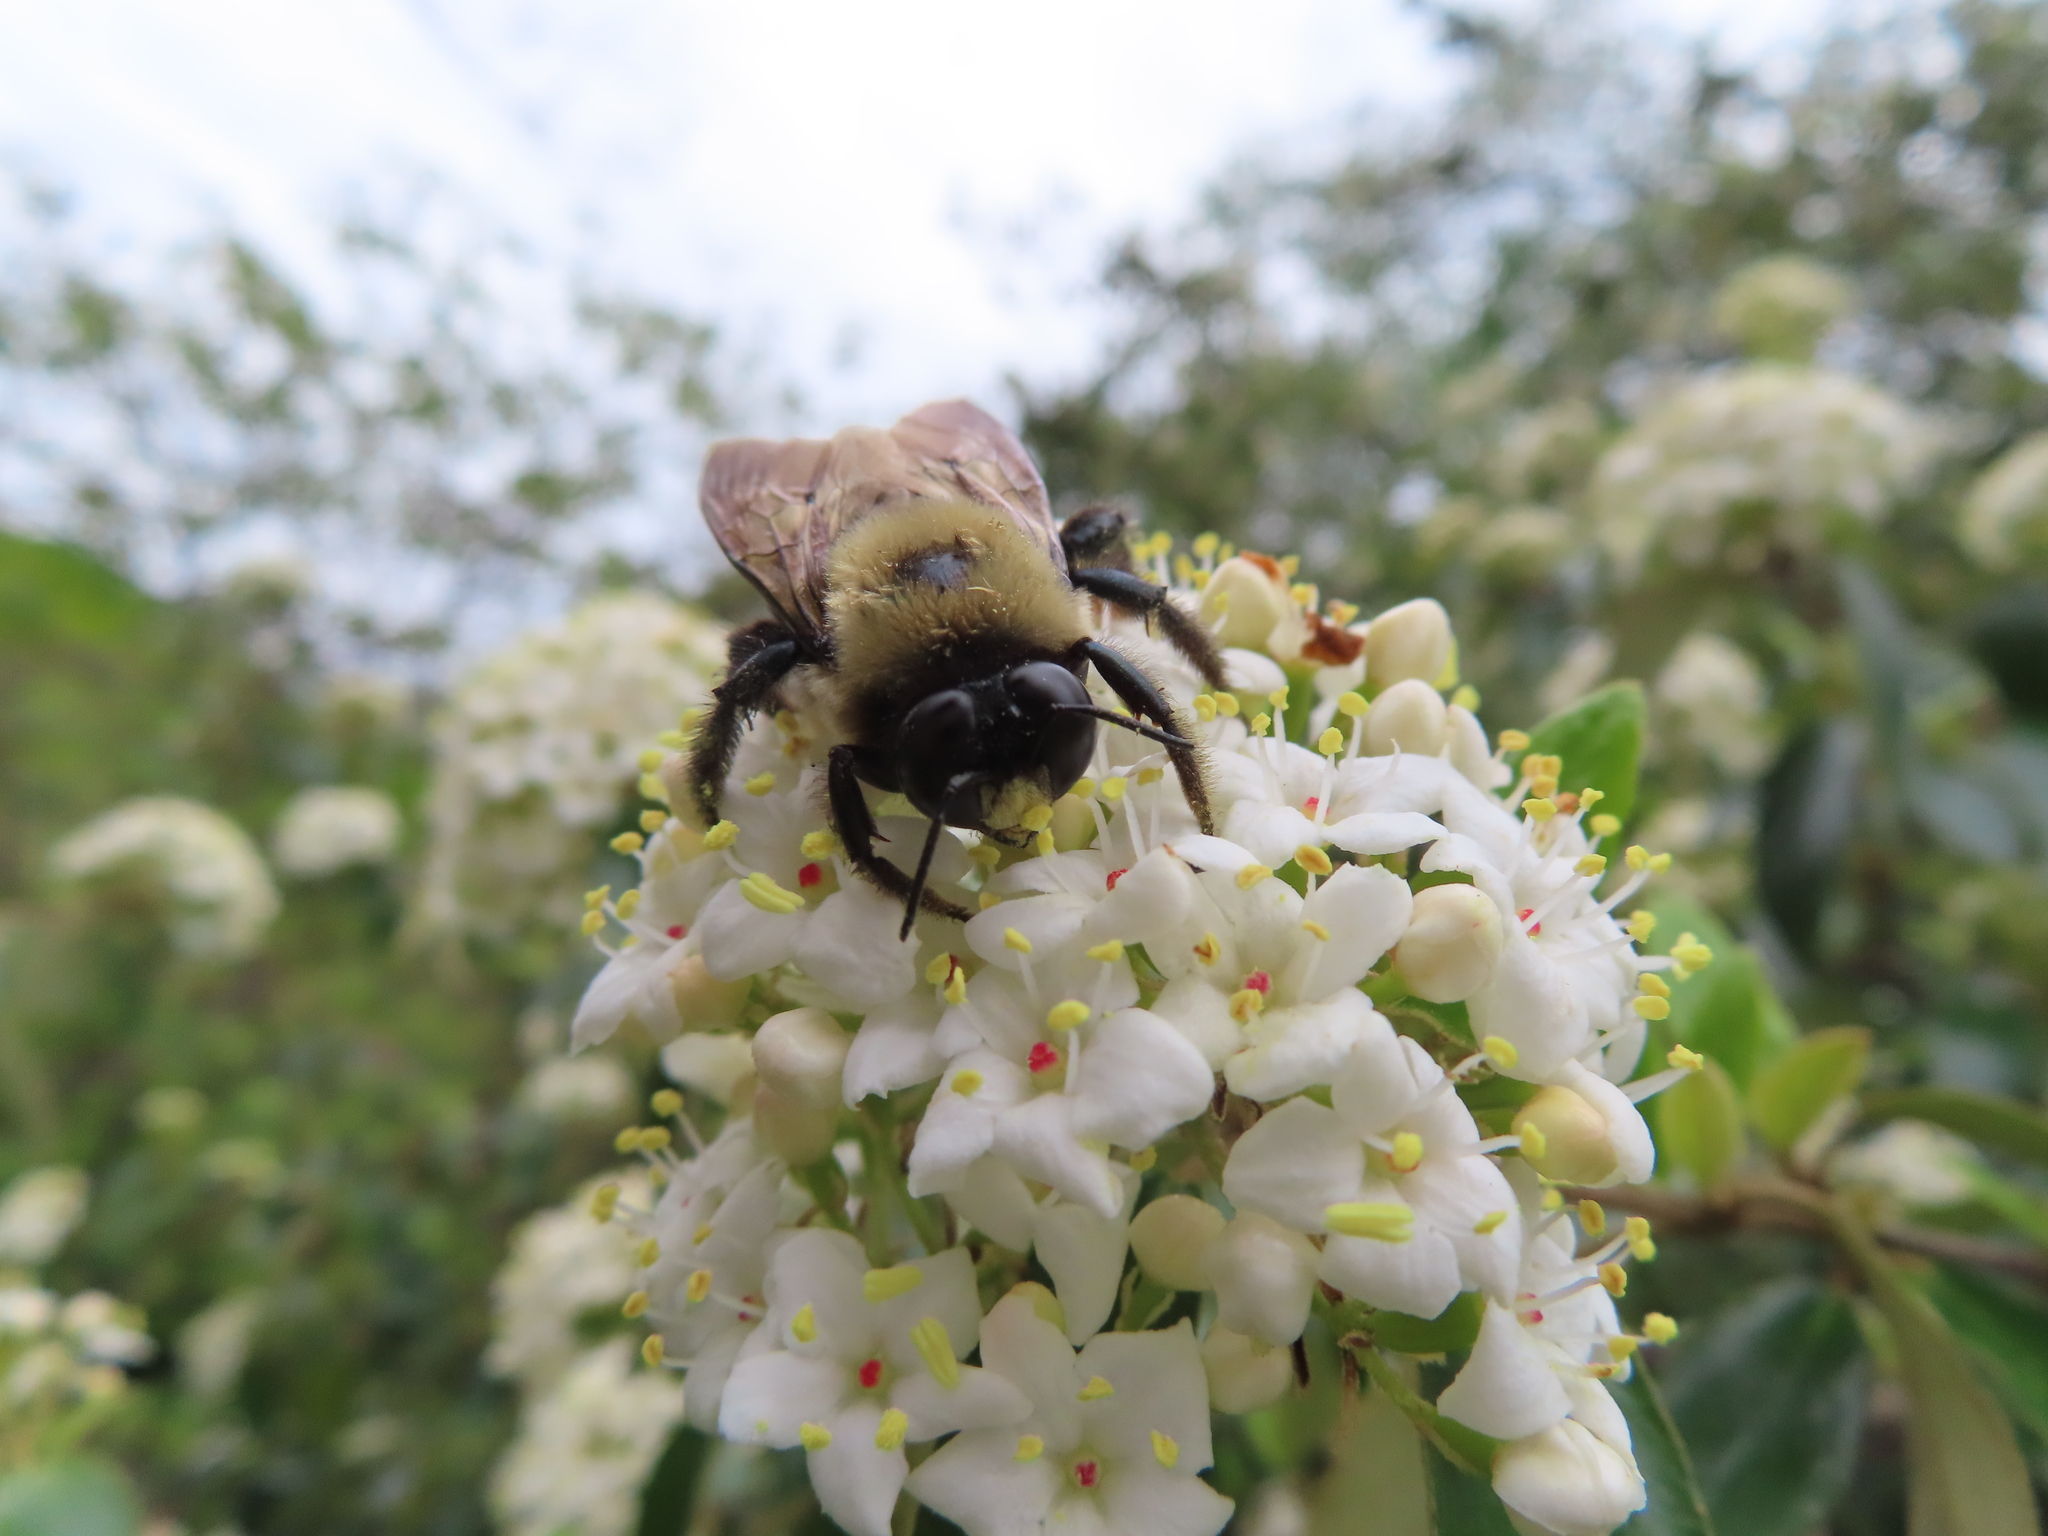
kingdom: Animalia
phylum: Arthropoda
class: Insecta
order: Hymenoptera
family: Apidae
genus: Xylocopa
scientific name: Xylocopa virginica
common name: Carpenter bee
